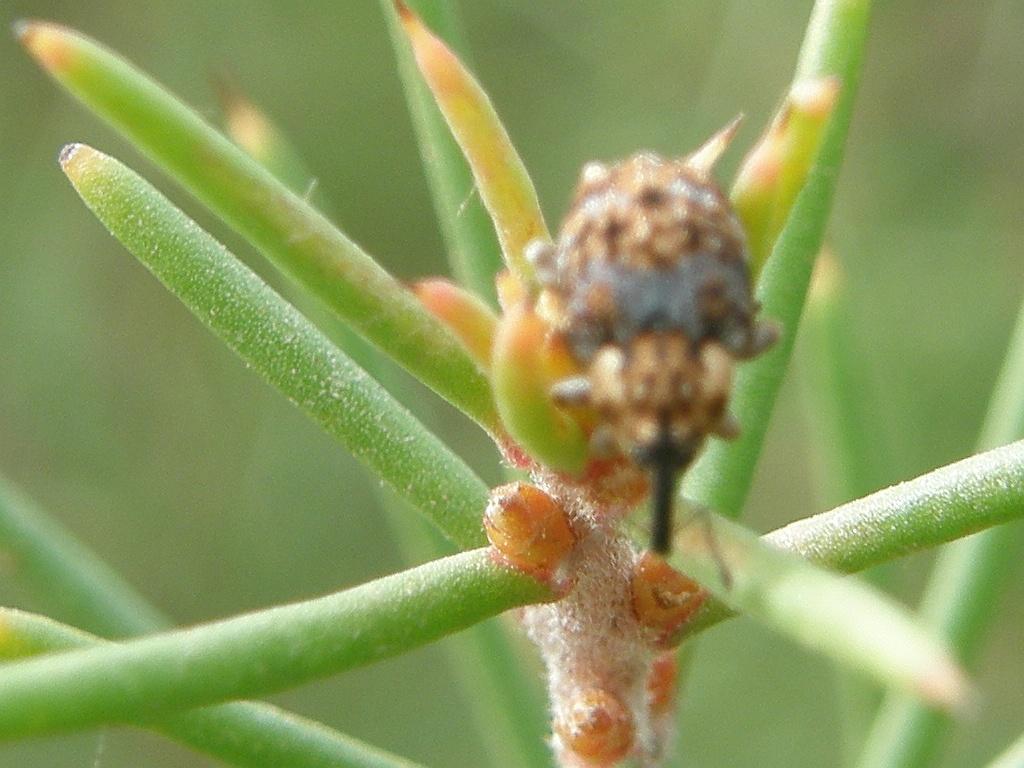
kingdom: Animalia
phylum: Arthropoda
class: Insecta
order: Coleoptera
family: Curculionidae
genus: Erytenna
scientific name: Erytenna consputa
